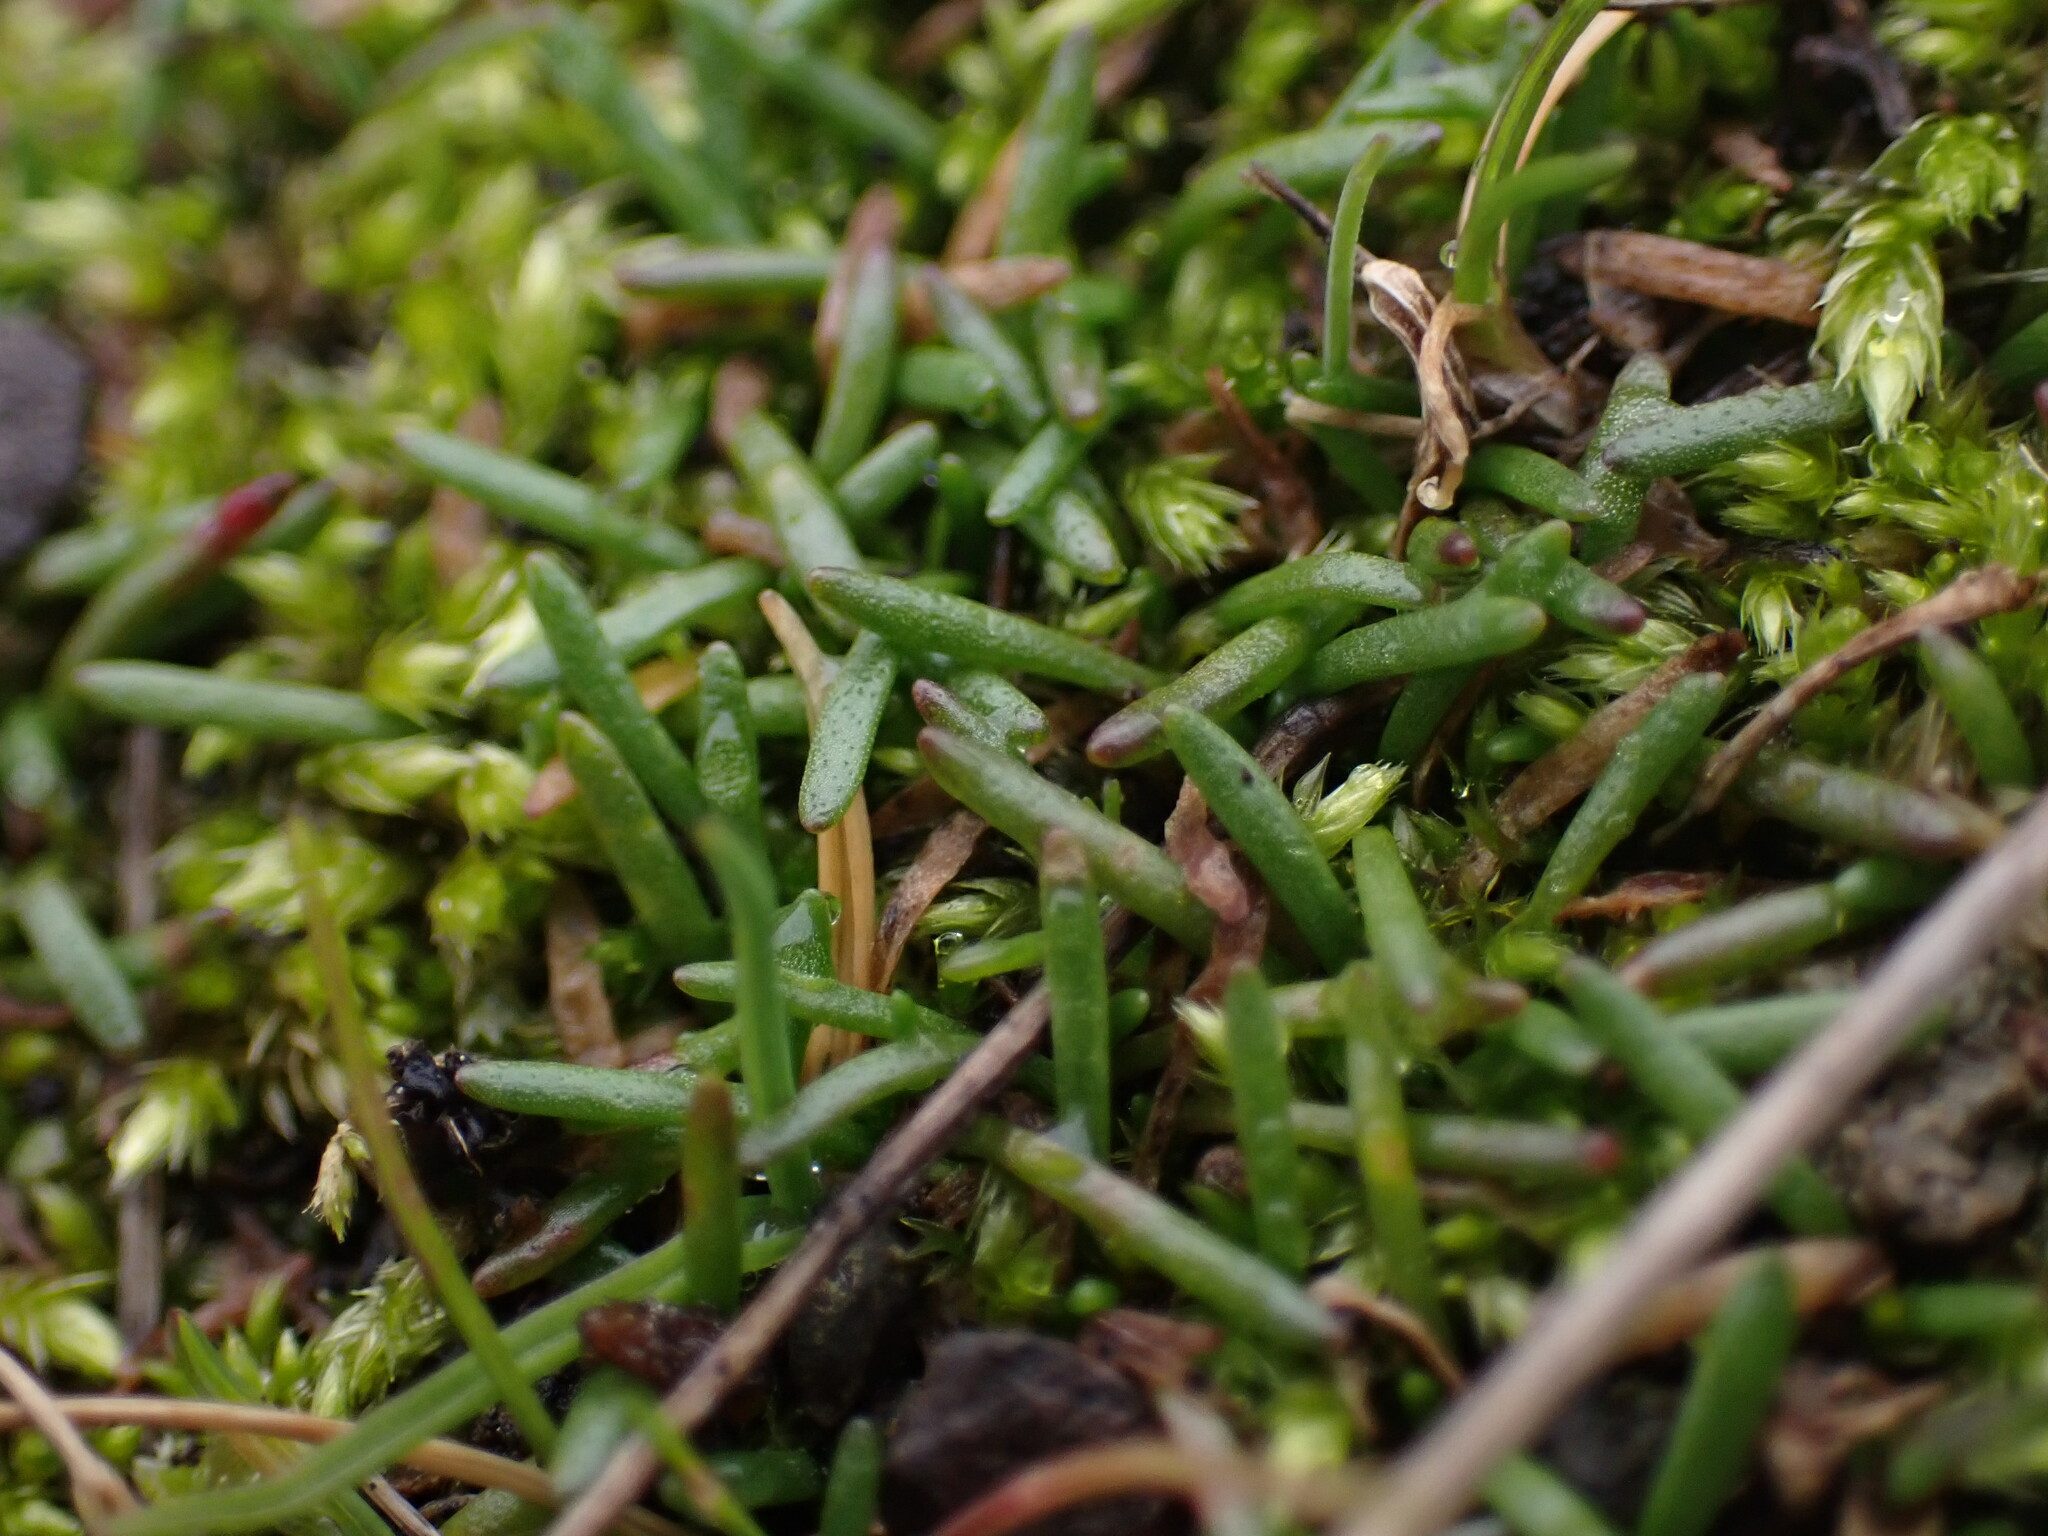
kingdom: Plantae
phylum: Tracheophyta
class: Magnoliopsida
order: Boraginales
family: Boraginaceae
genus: Plagiobothrys
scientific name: Plagiobothrys scouleri
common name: White forget-me-not
